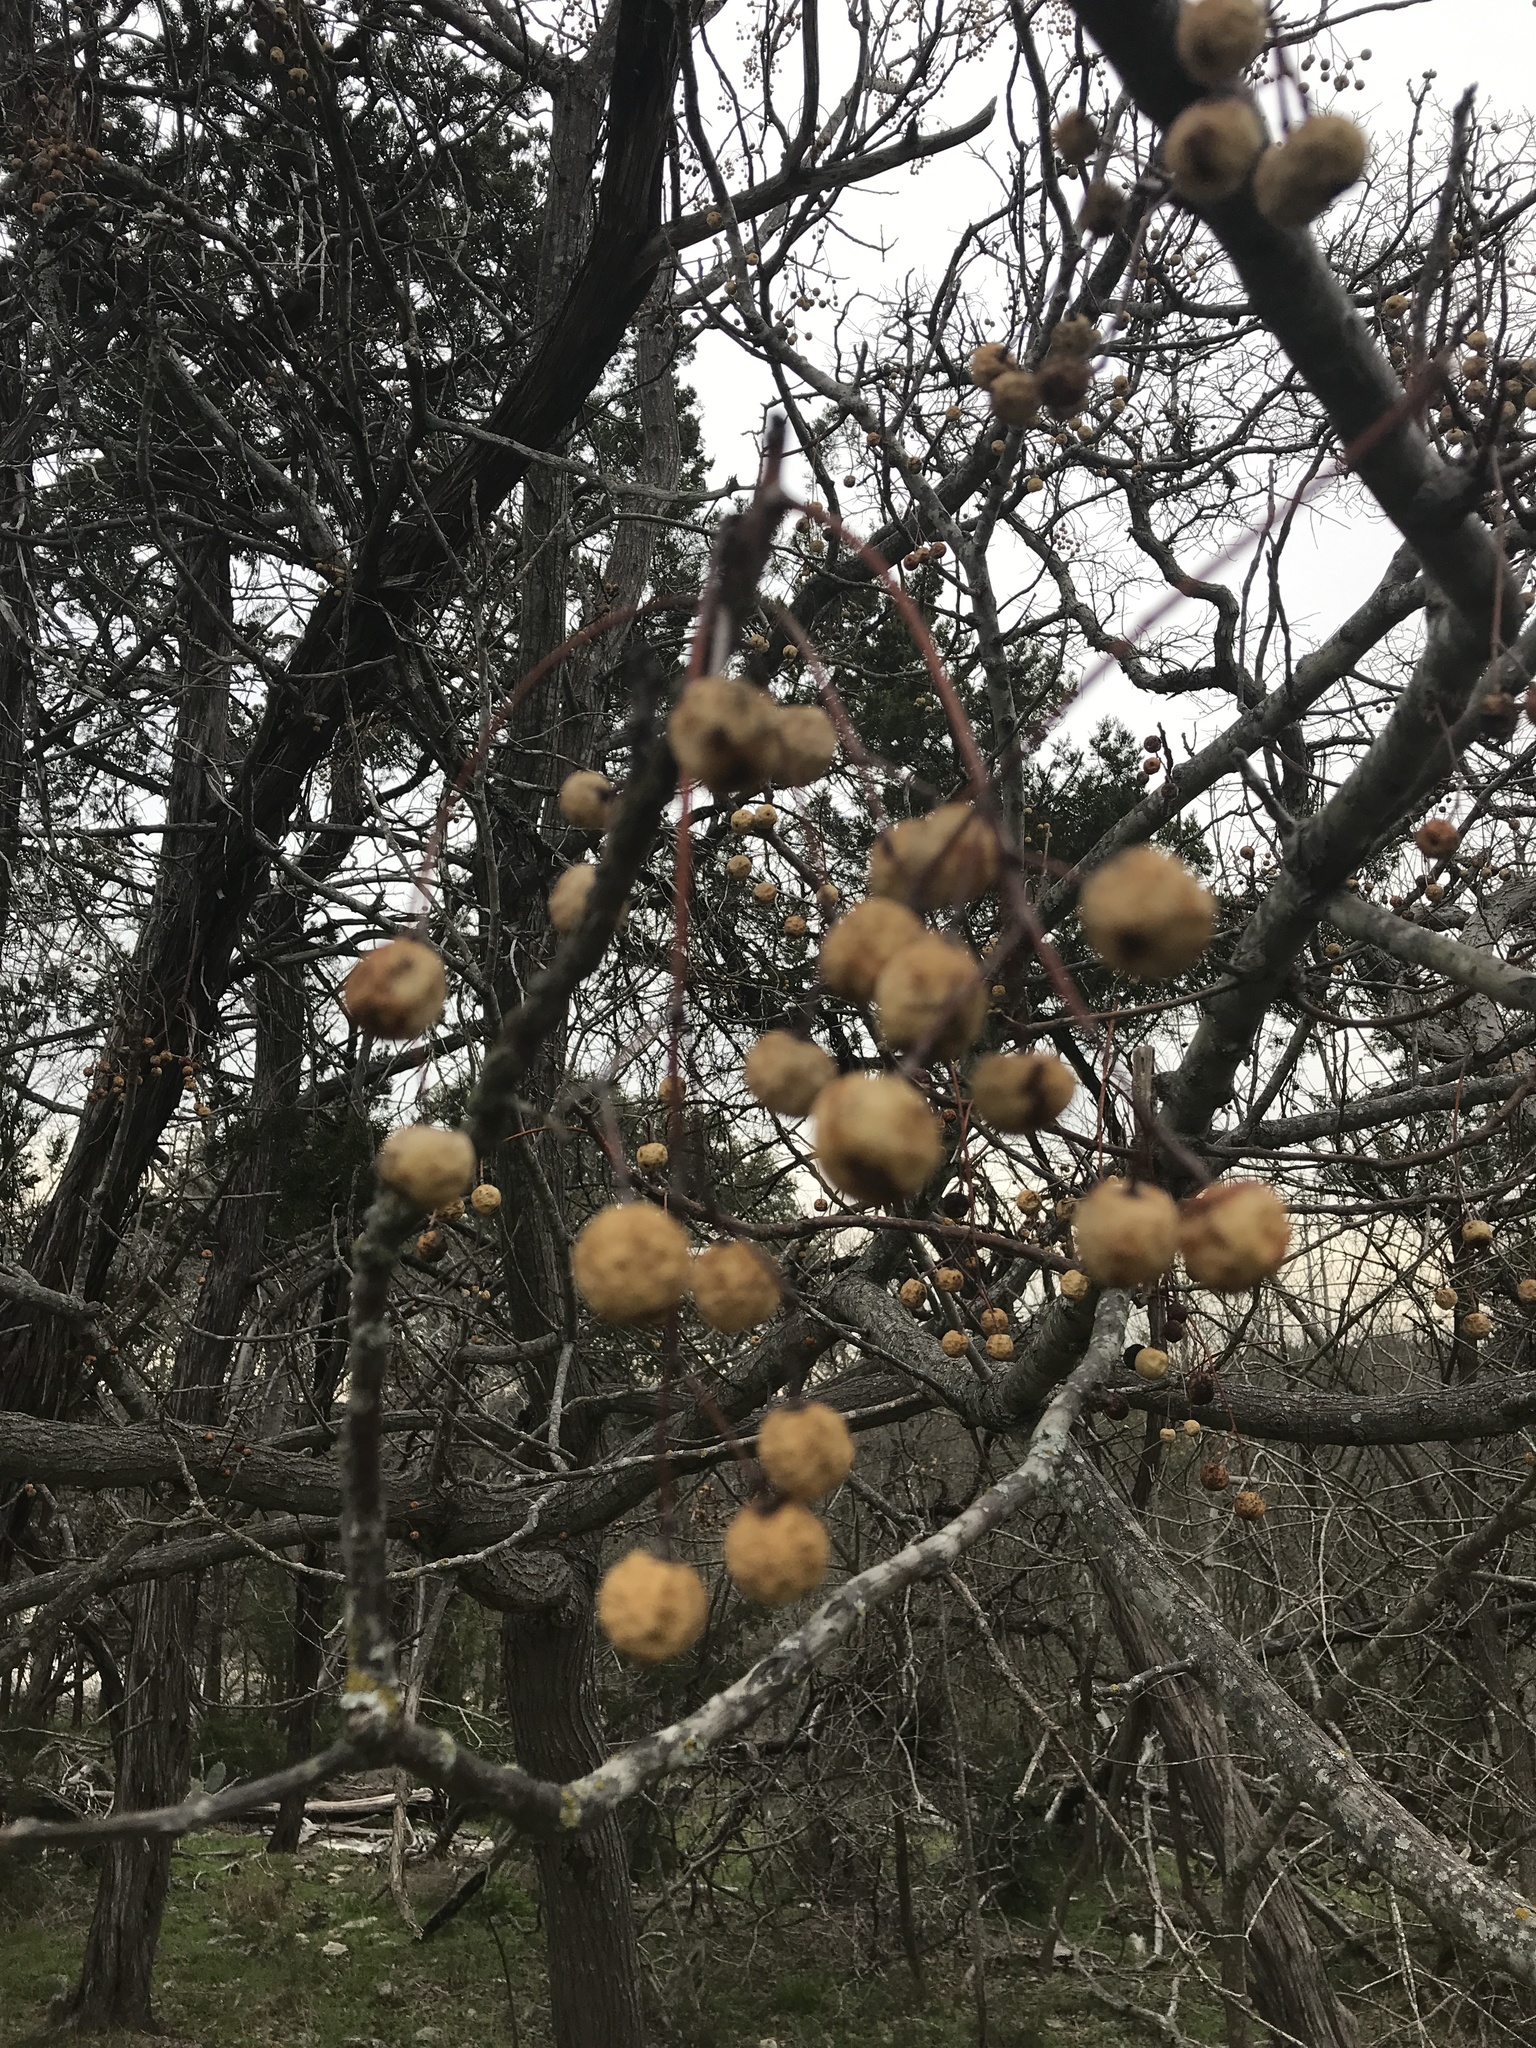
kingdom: Plantae
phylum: Tracheophyta
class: Magnoliopsida
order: Sapindales
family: Meliaceae
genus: Melia
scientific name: Melia azedarach
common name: Chinaberrytree
